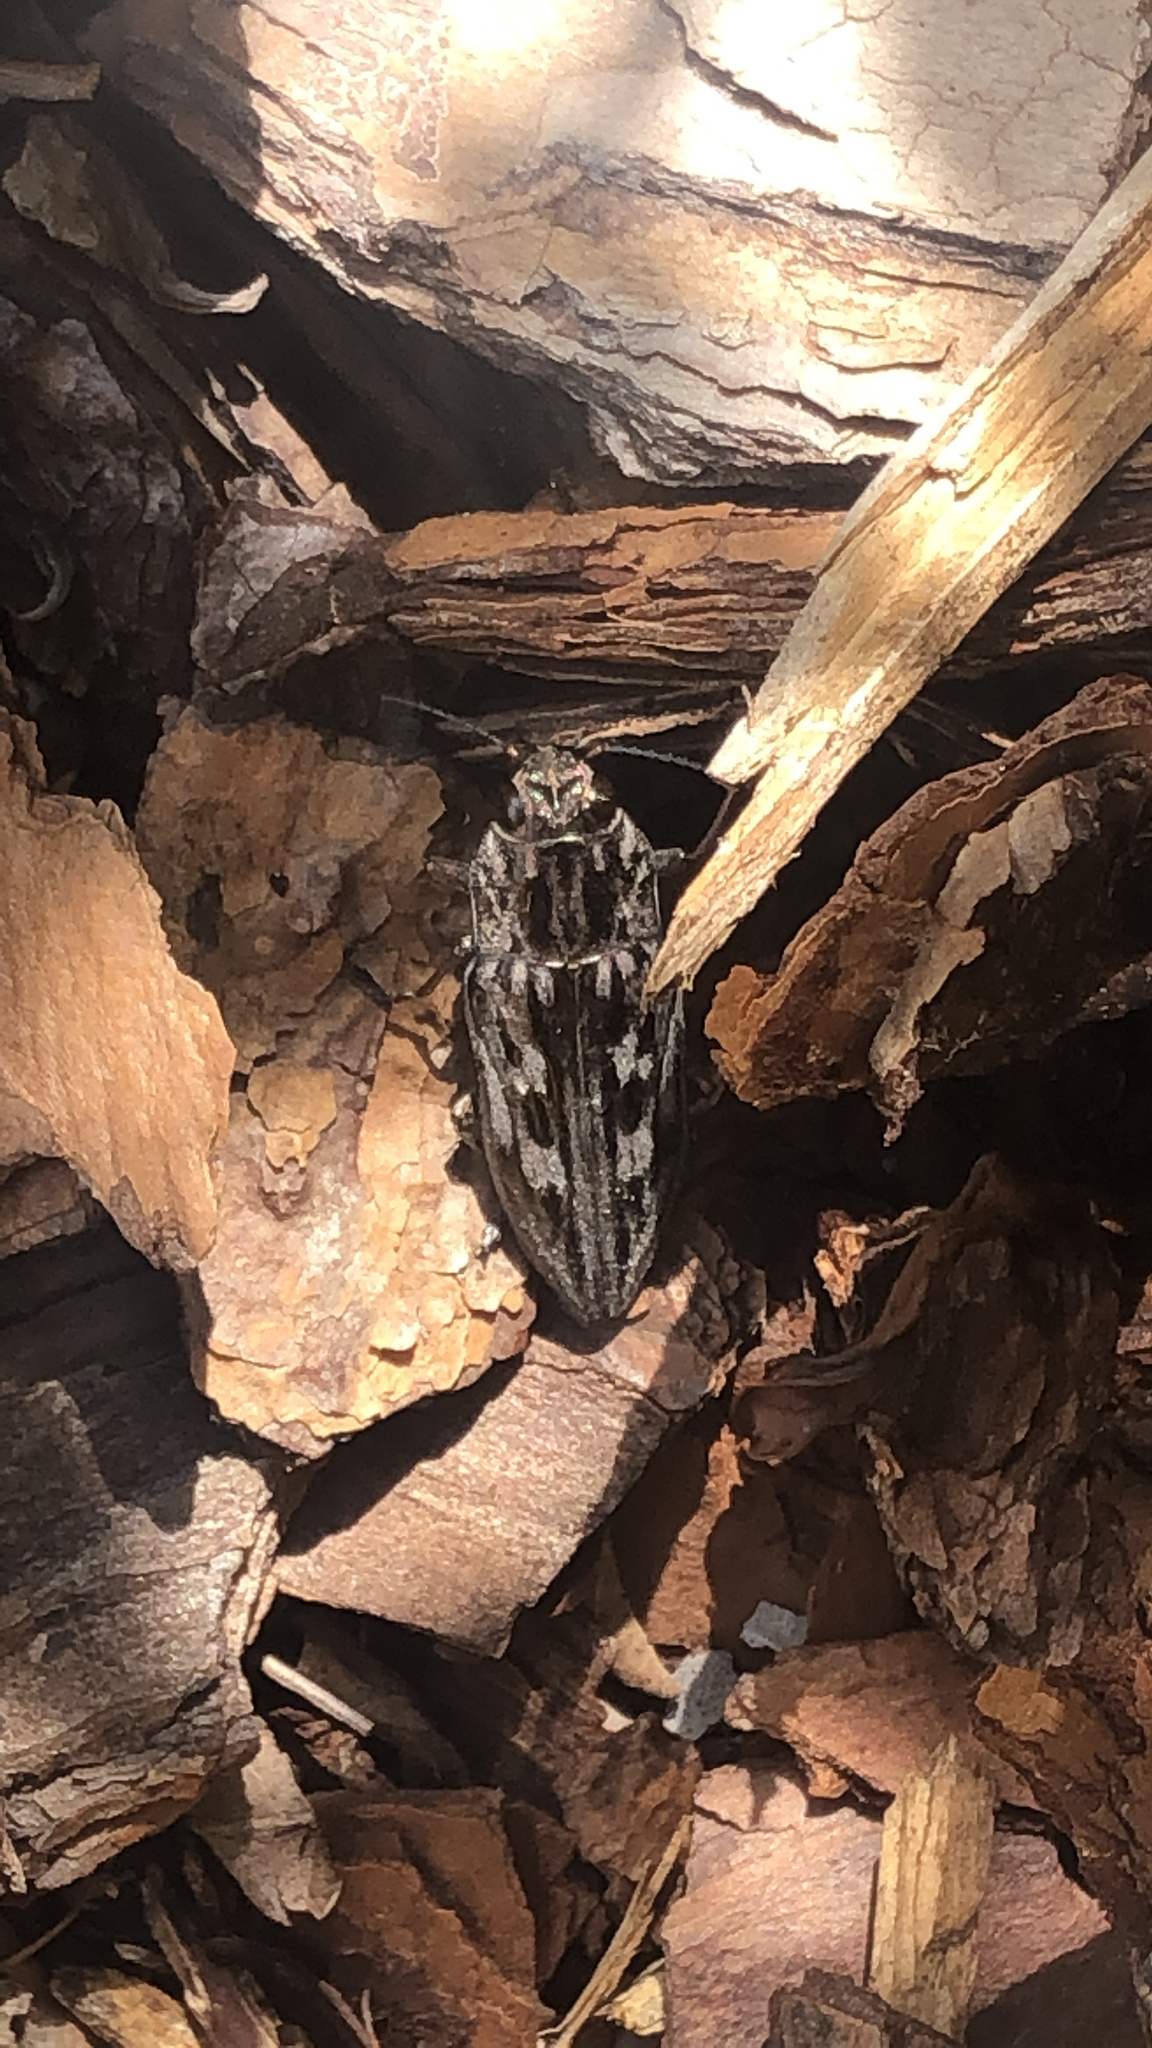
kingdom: Animalia
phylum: Arthropoda
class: Insecta
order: Coleoptera
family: Buprestidae
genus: Chalcophora
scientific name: Chalcophora virginiensis
